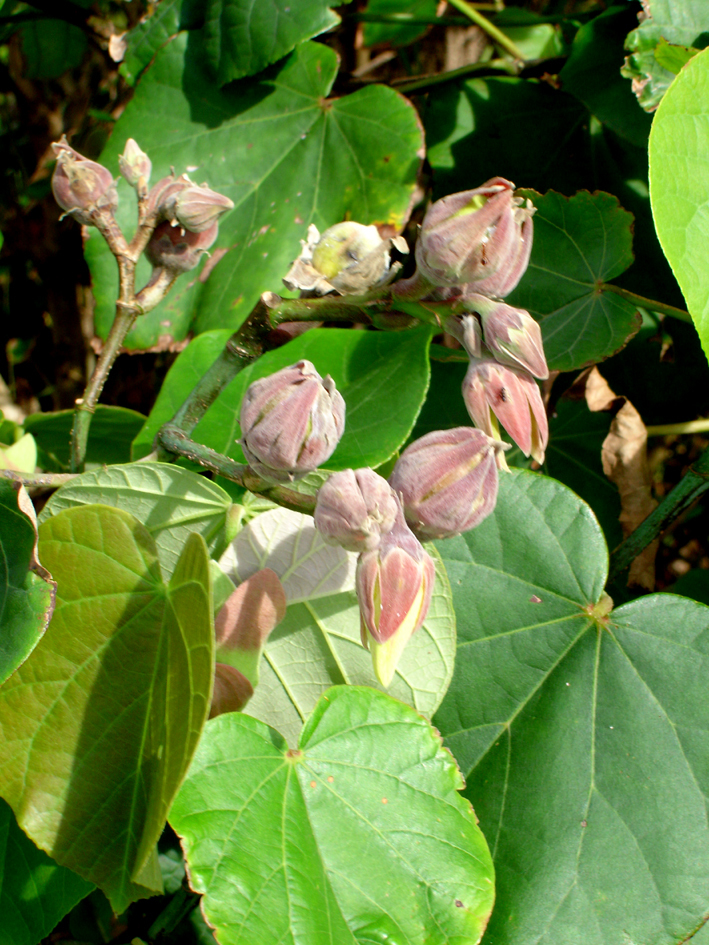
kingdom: Plantae
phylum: Tracheophyta
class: Magnoliopsida
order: Malvales
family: Malvaceae
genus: Talipariti
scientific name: Talipariti tiliaceum
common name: Sea hibiscus
